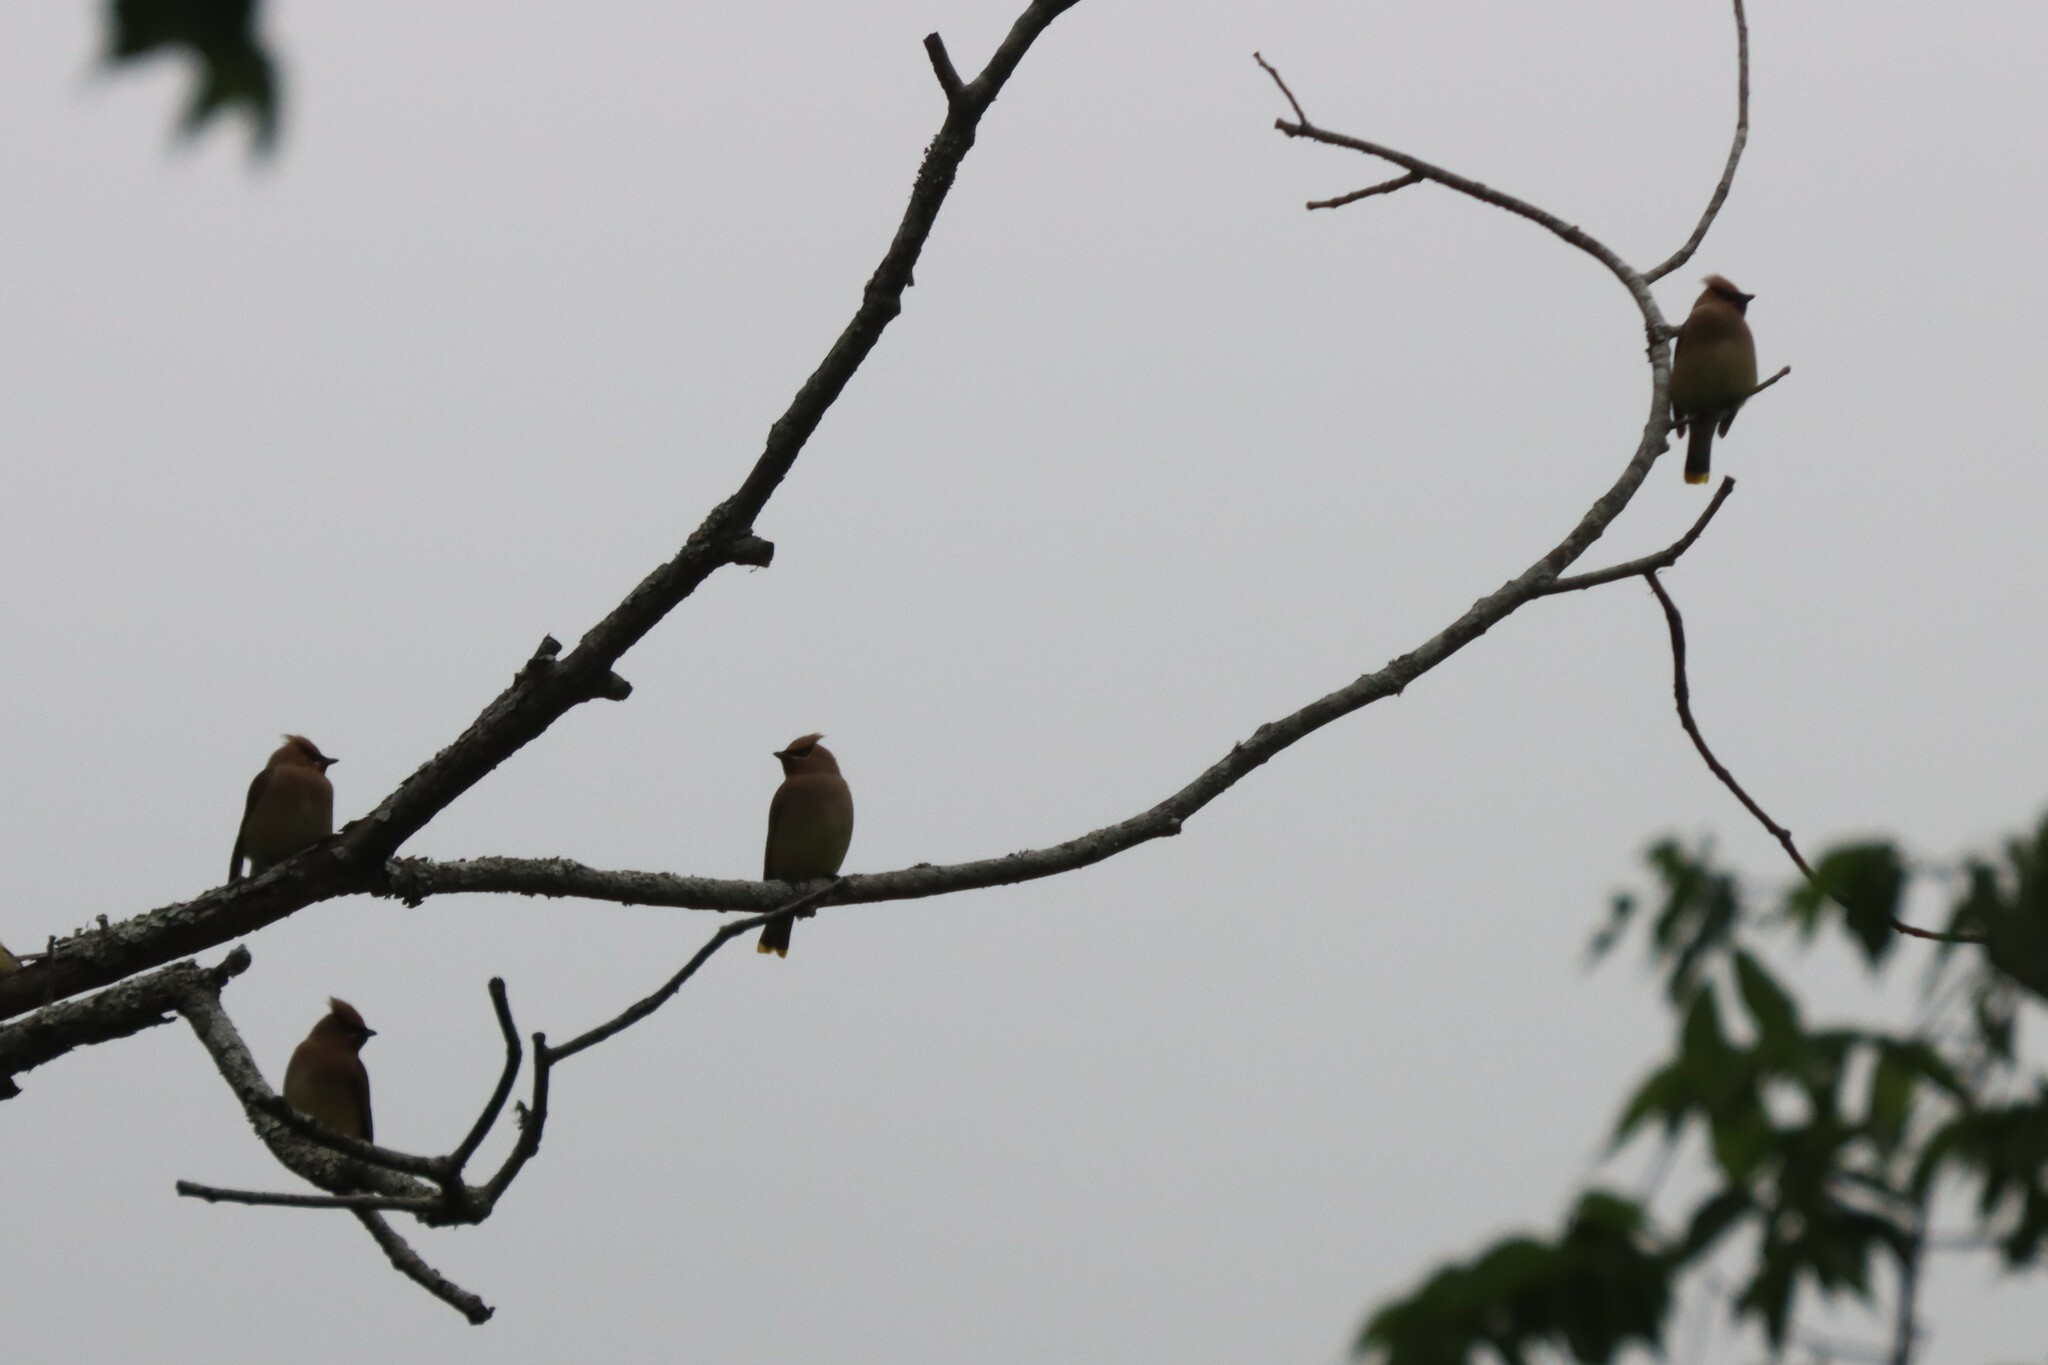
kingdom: Animalia
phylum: Chordata
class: Aves
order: Passeriformes
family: Bombycillidae
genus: Bombycilla
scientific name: Bombycilla cedrorum
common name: Cedar waxwing
